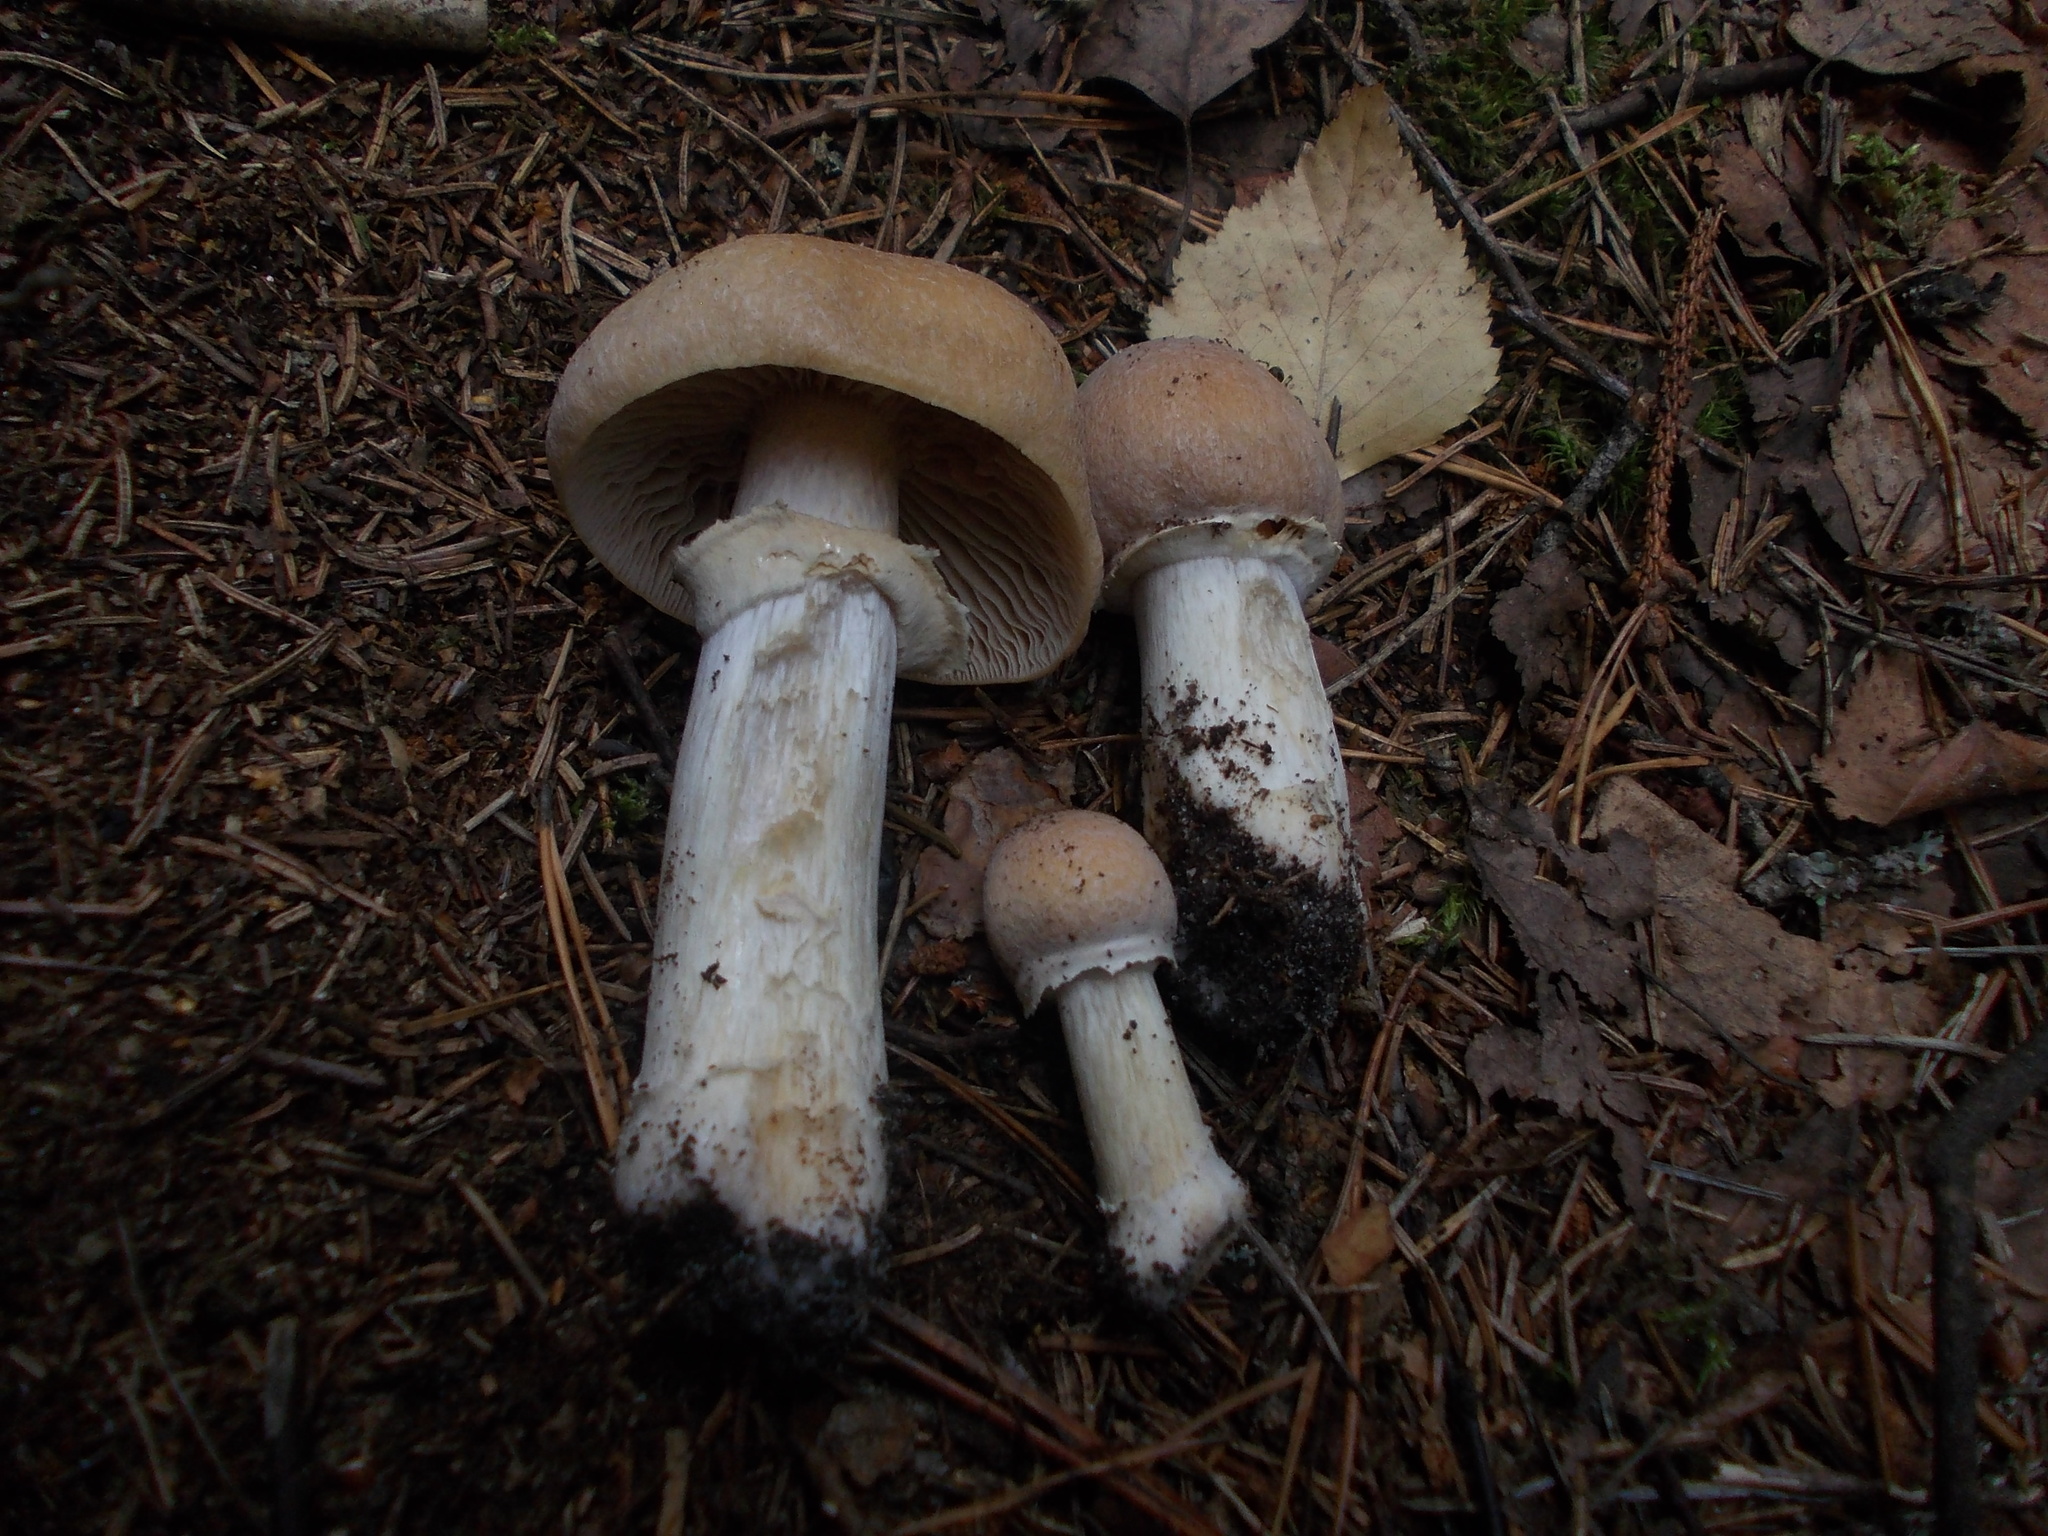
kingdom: Fungi
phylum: Basidiomycota
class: Agaricomycetes
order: Agaricales
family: Cortinariaceae
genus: Cortinarius
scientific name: Cortinarius caperatus
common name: The gypsy
